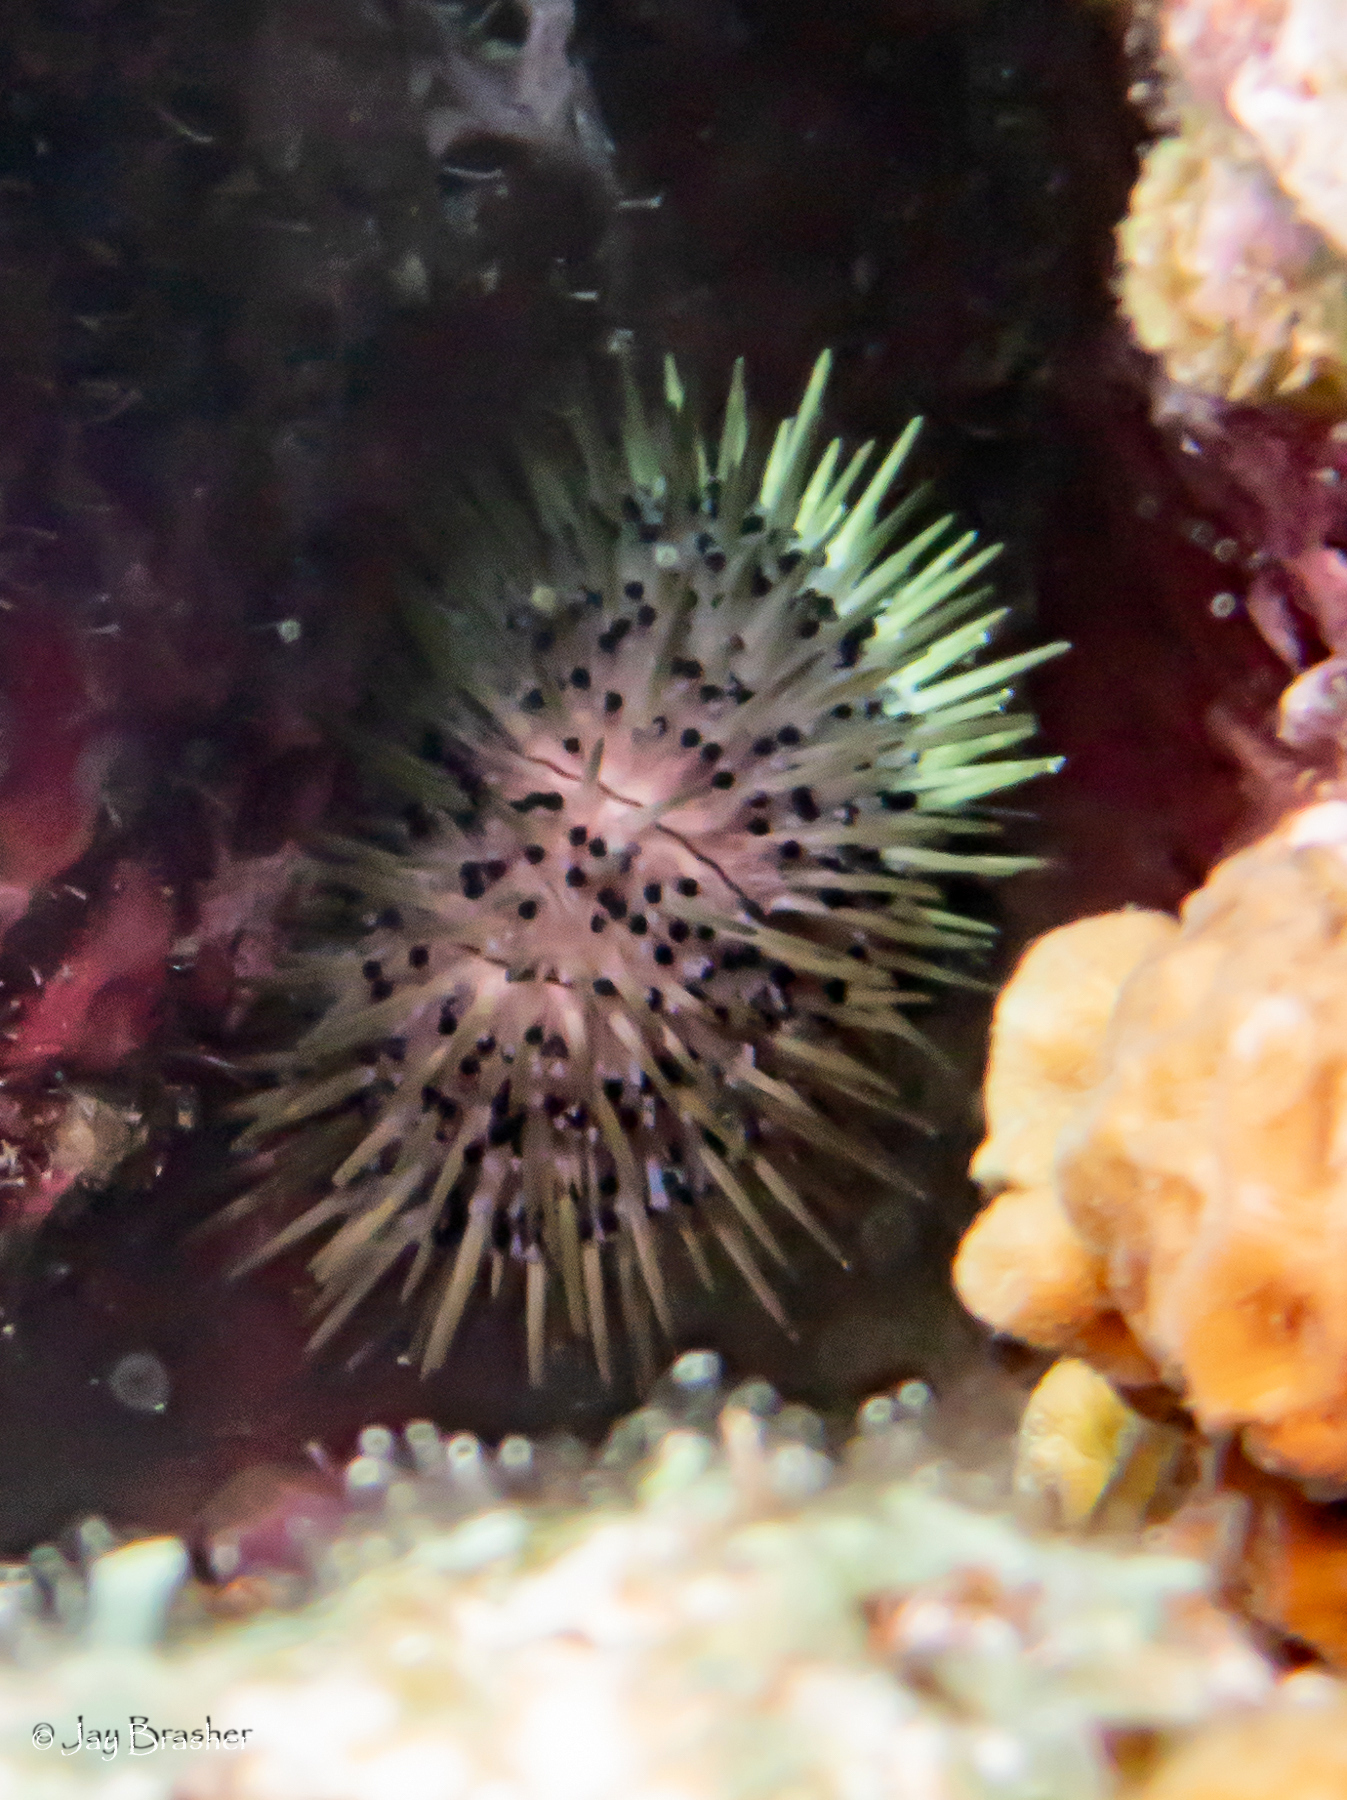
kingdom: Animalia
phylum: Echinodermata
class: Echinoidea
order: Camarodonta
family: Toxopneustidae
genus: Lytechinus
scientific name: Lytechinus williamsi
